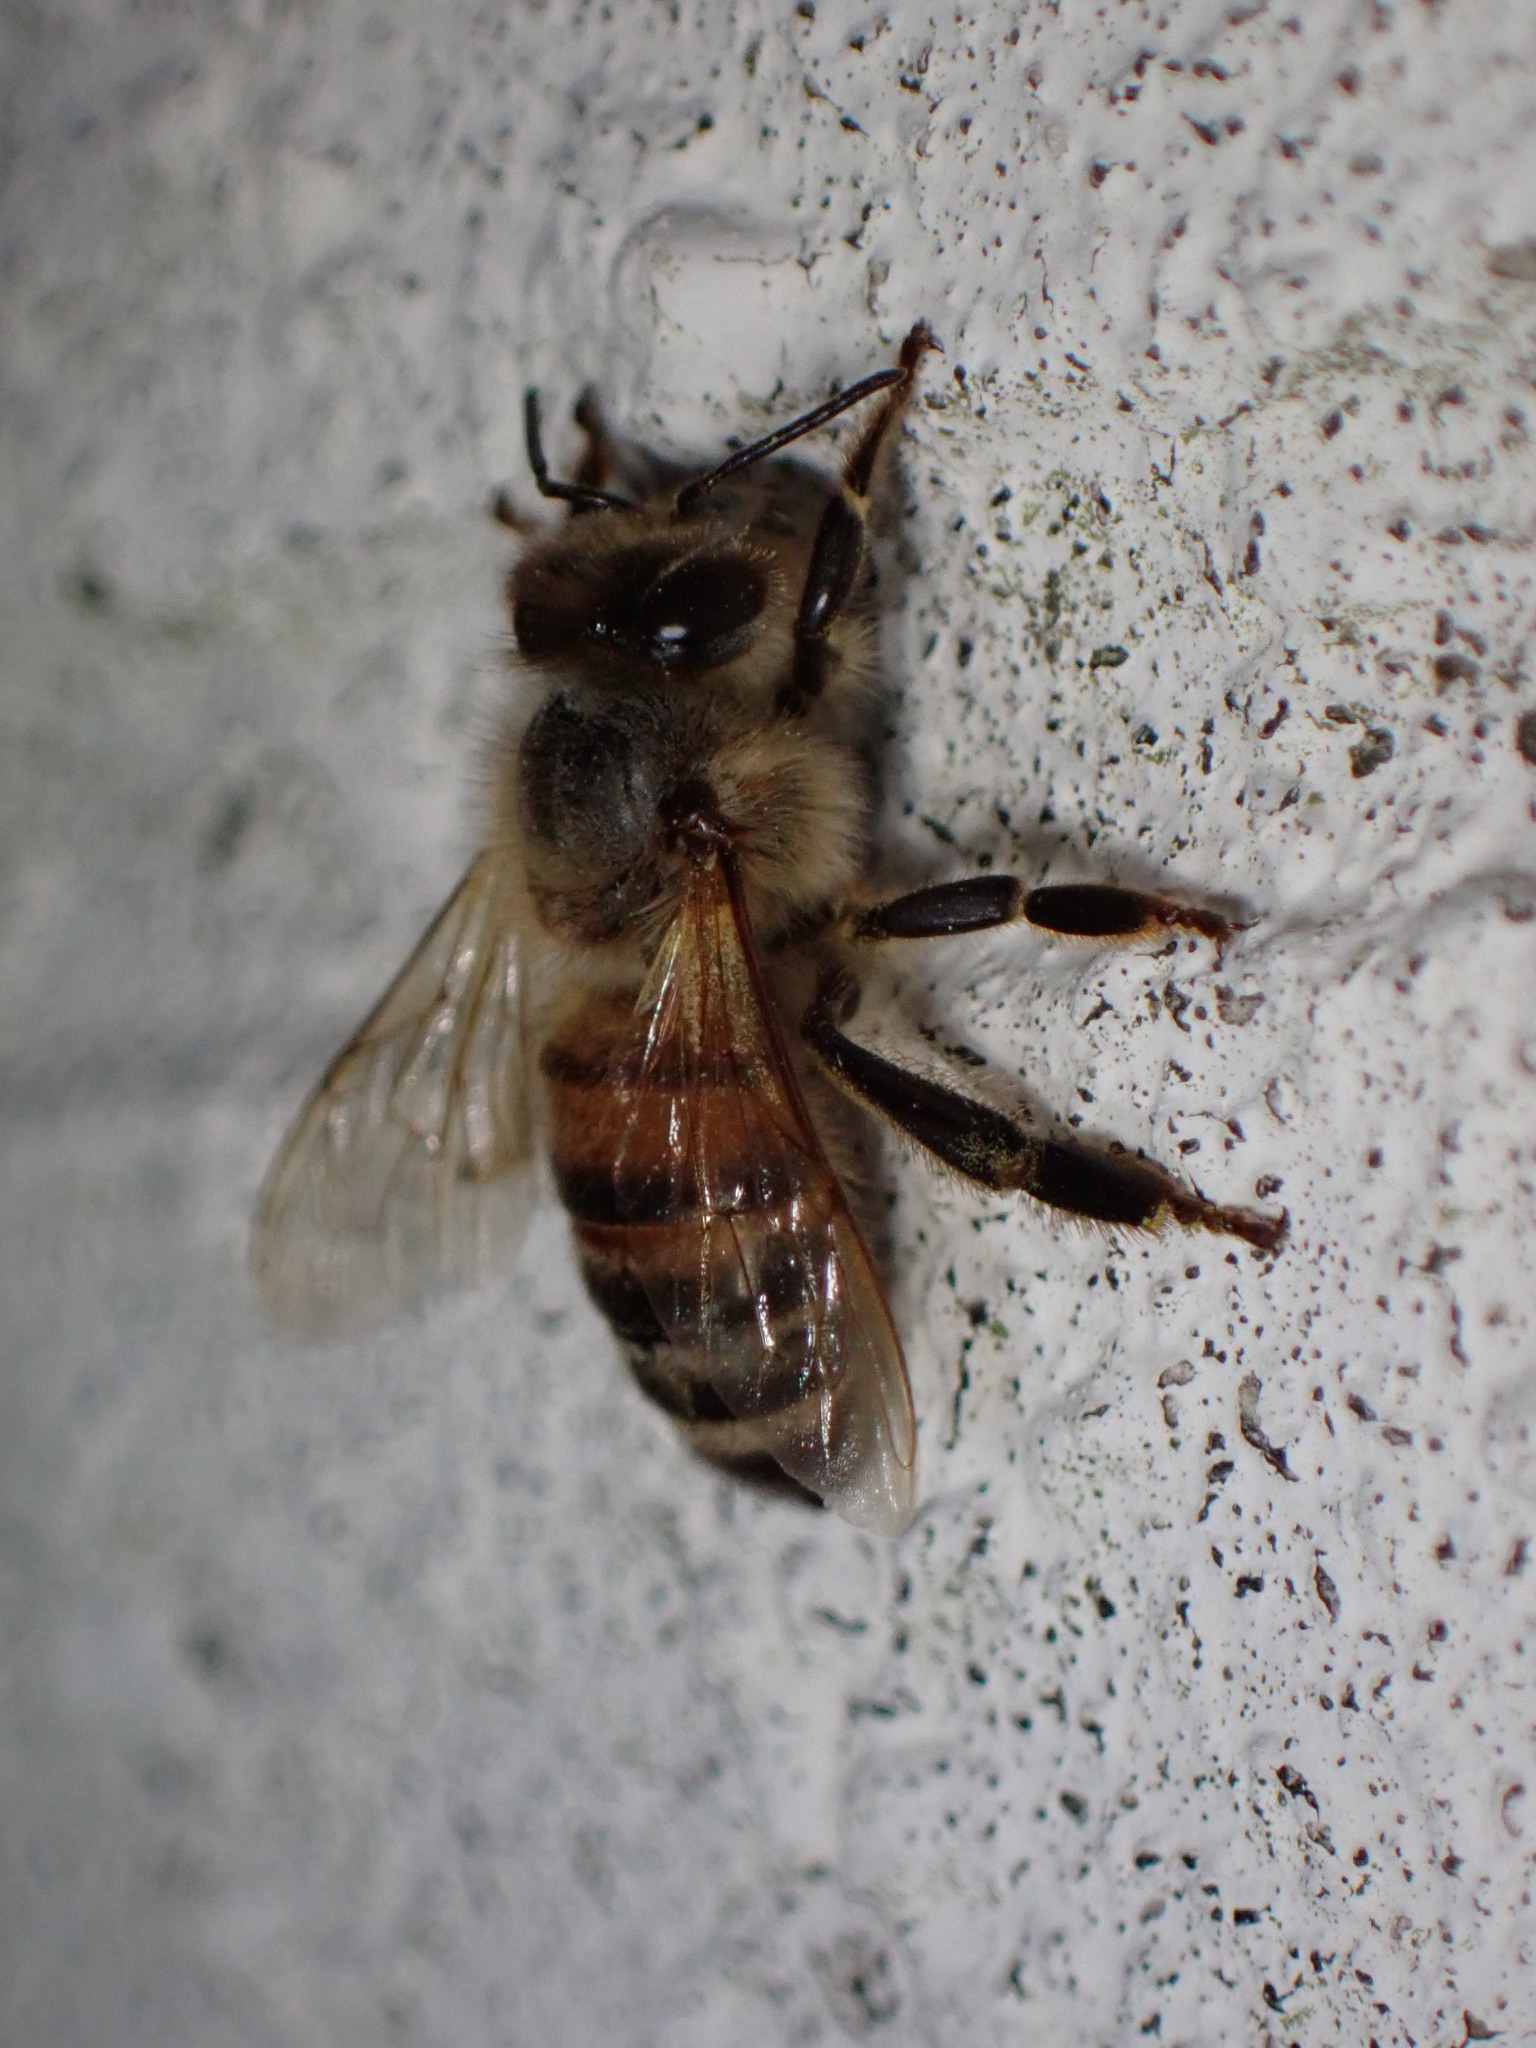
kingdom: Animalia
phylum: Arthropoda
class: Insecta
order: Hymenoptera
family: Apidae
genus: Apis
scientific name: Apis mellifera
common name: Honey bee
